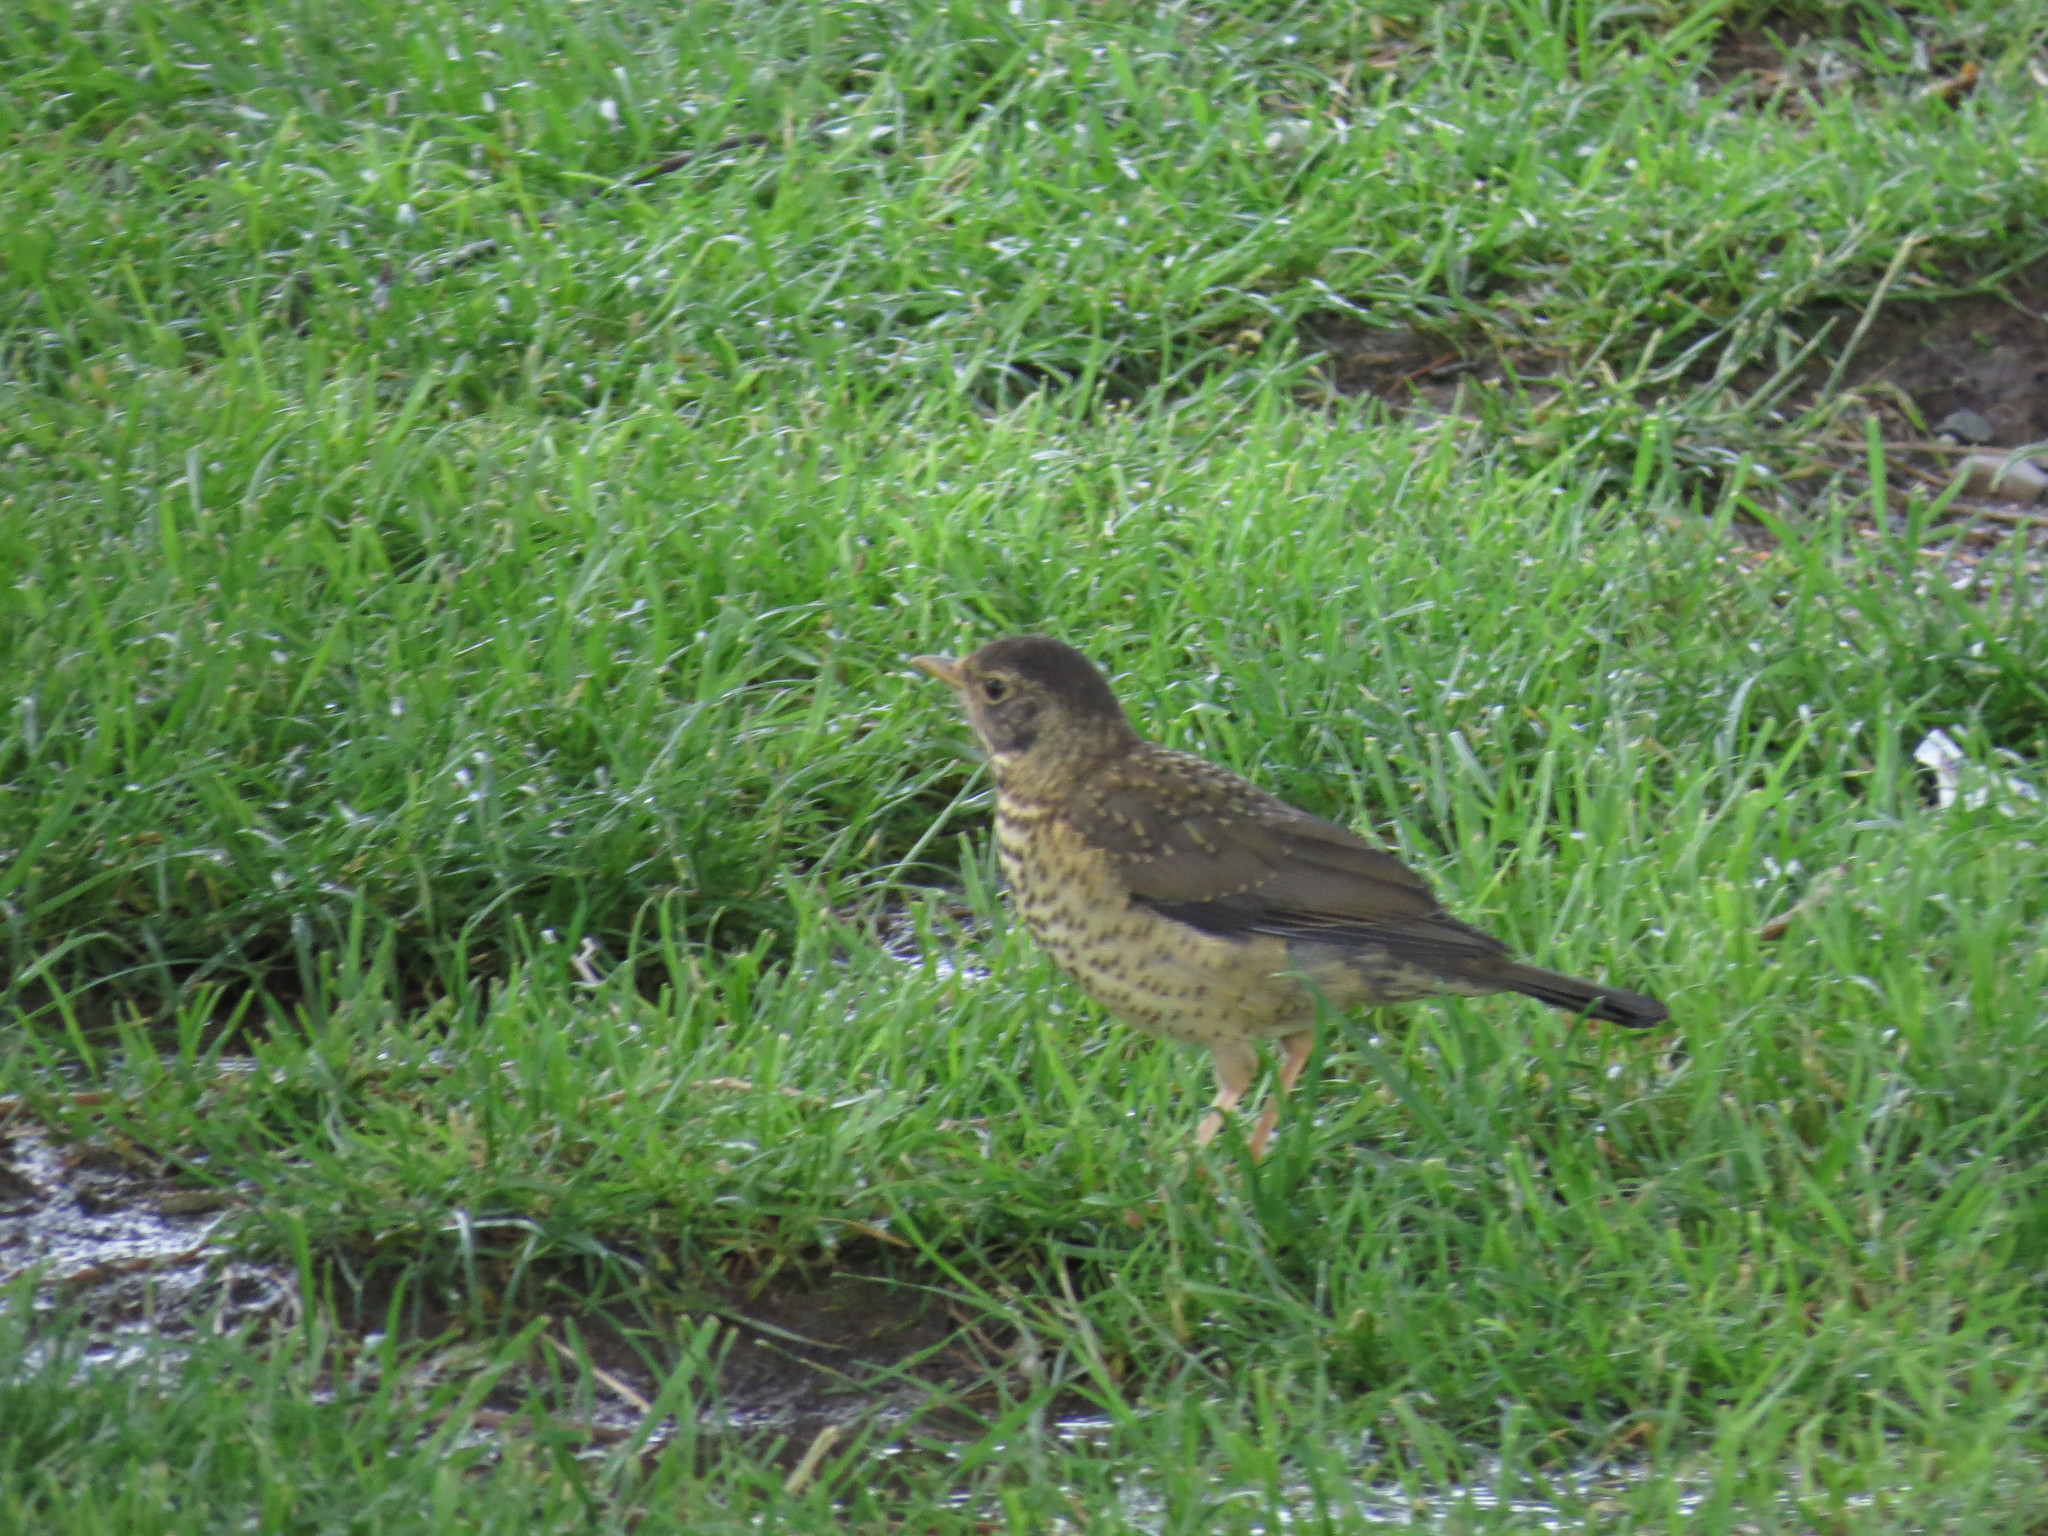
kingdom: Animalia
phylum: Chordata
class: Aves
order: Passeriformes
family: Turdidae
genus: Turdus
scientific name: Turdus falcklandii
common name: Austral thrush
